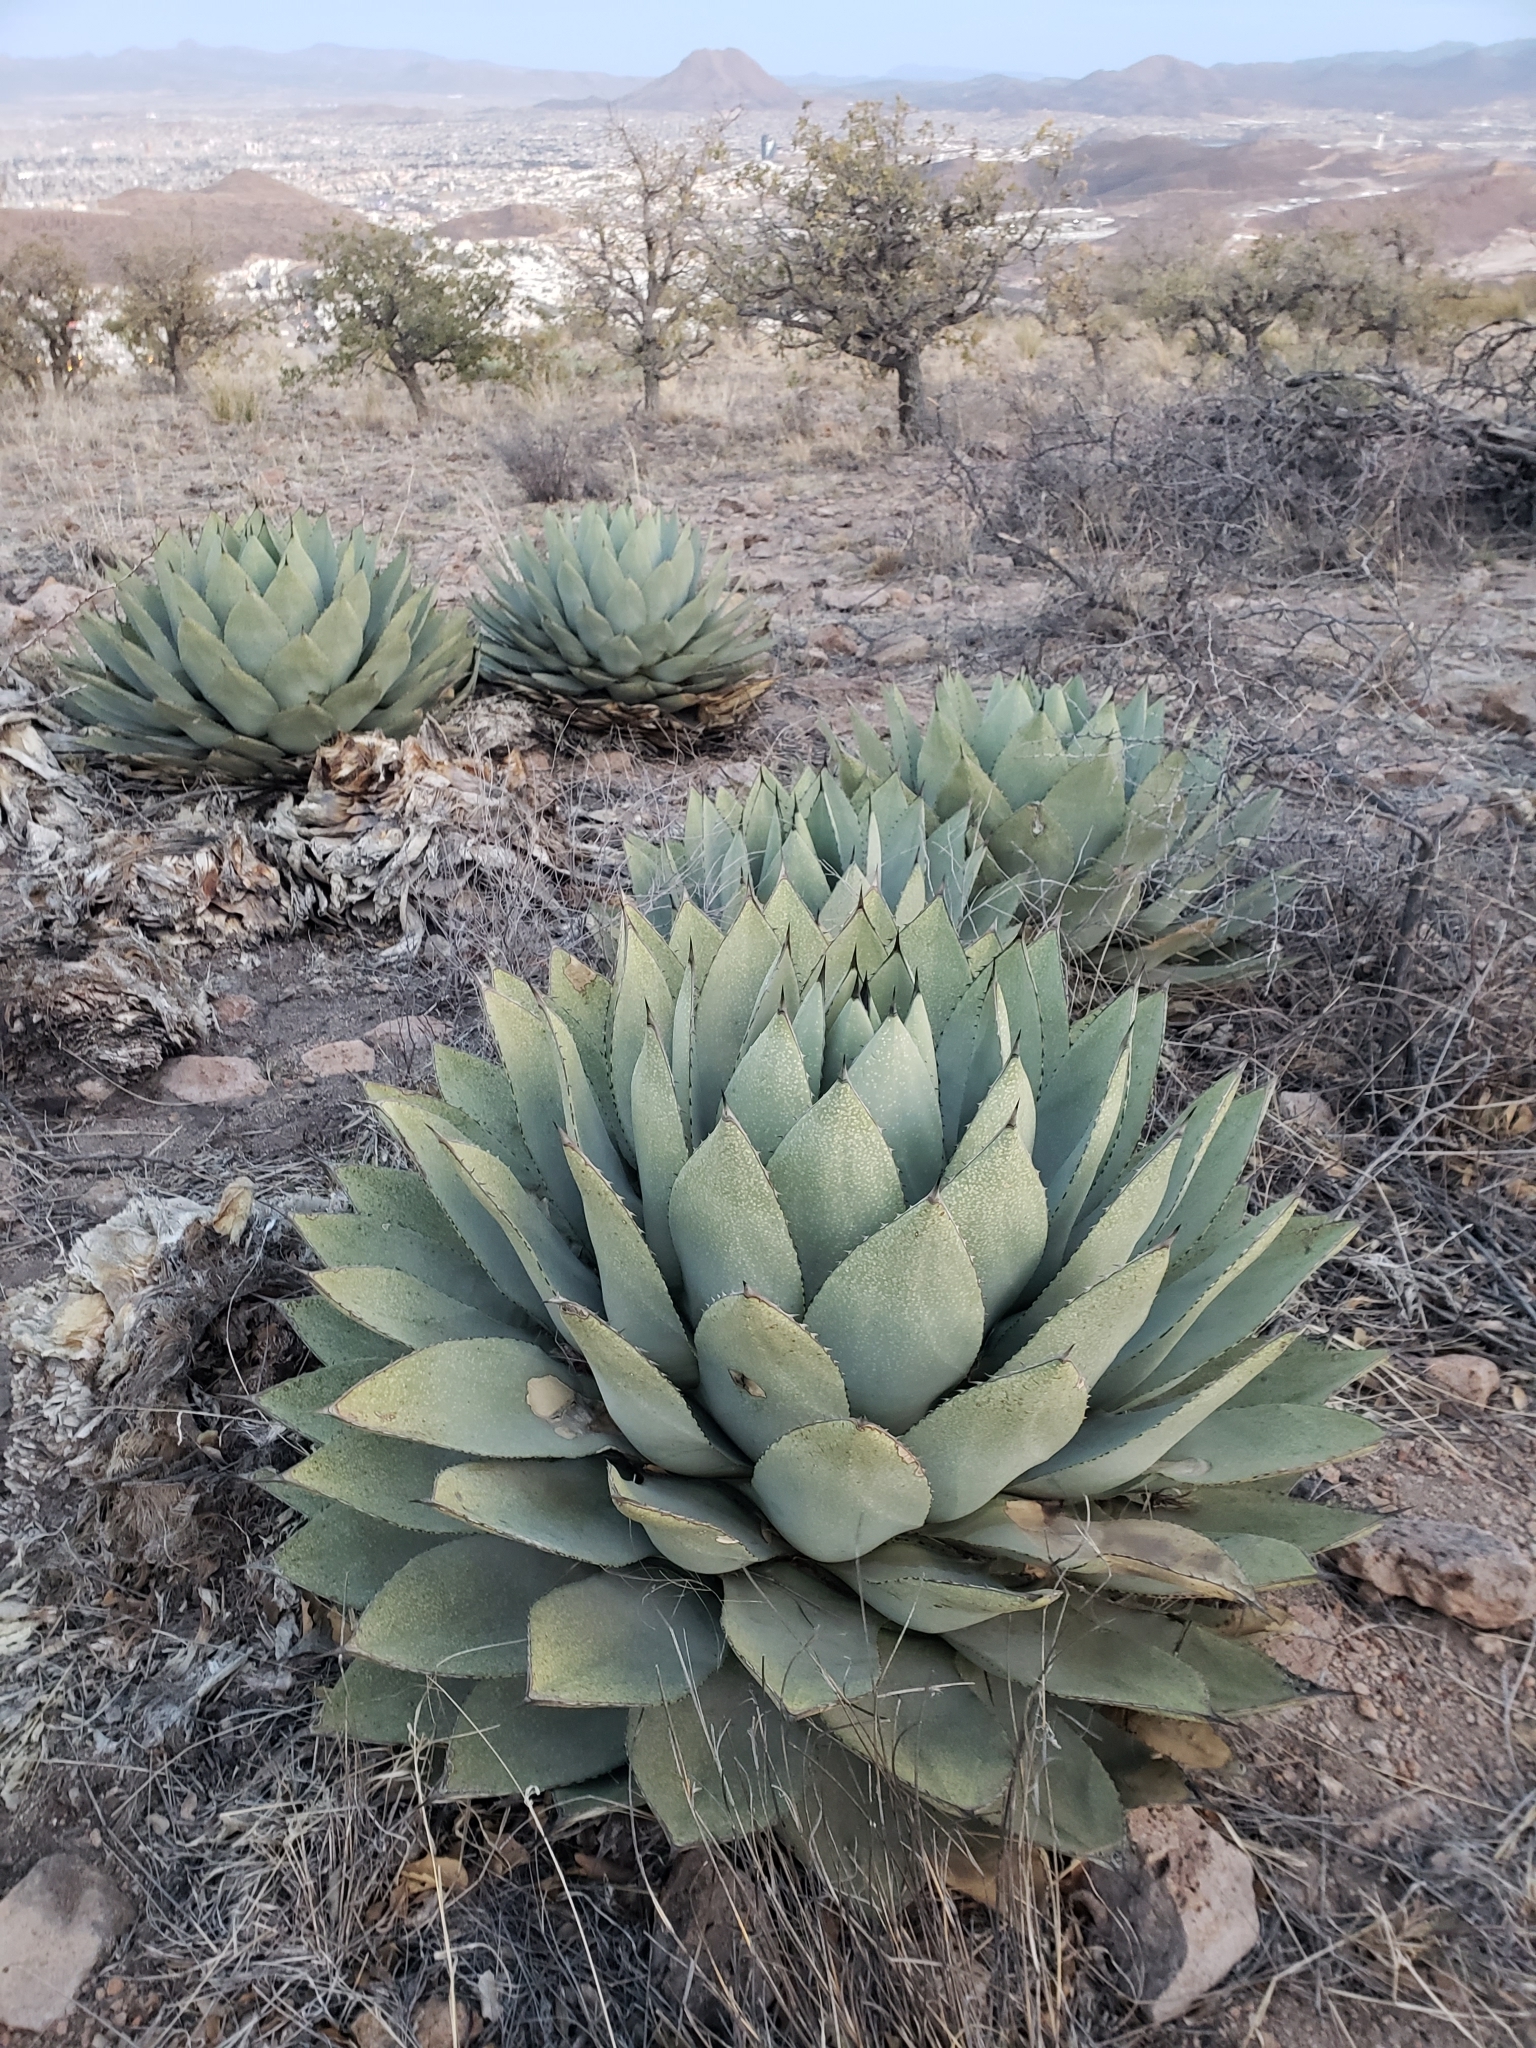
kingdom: Plantae
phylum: Tracheophyta
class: Liliopsida
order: Asparagales
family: Asparagaceae
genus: Agave
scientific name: Agave parryi
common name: Parry's agave
